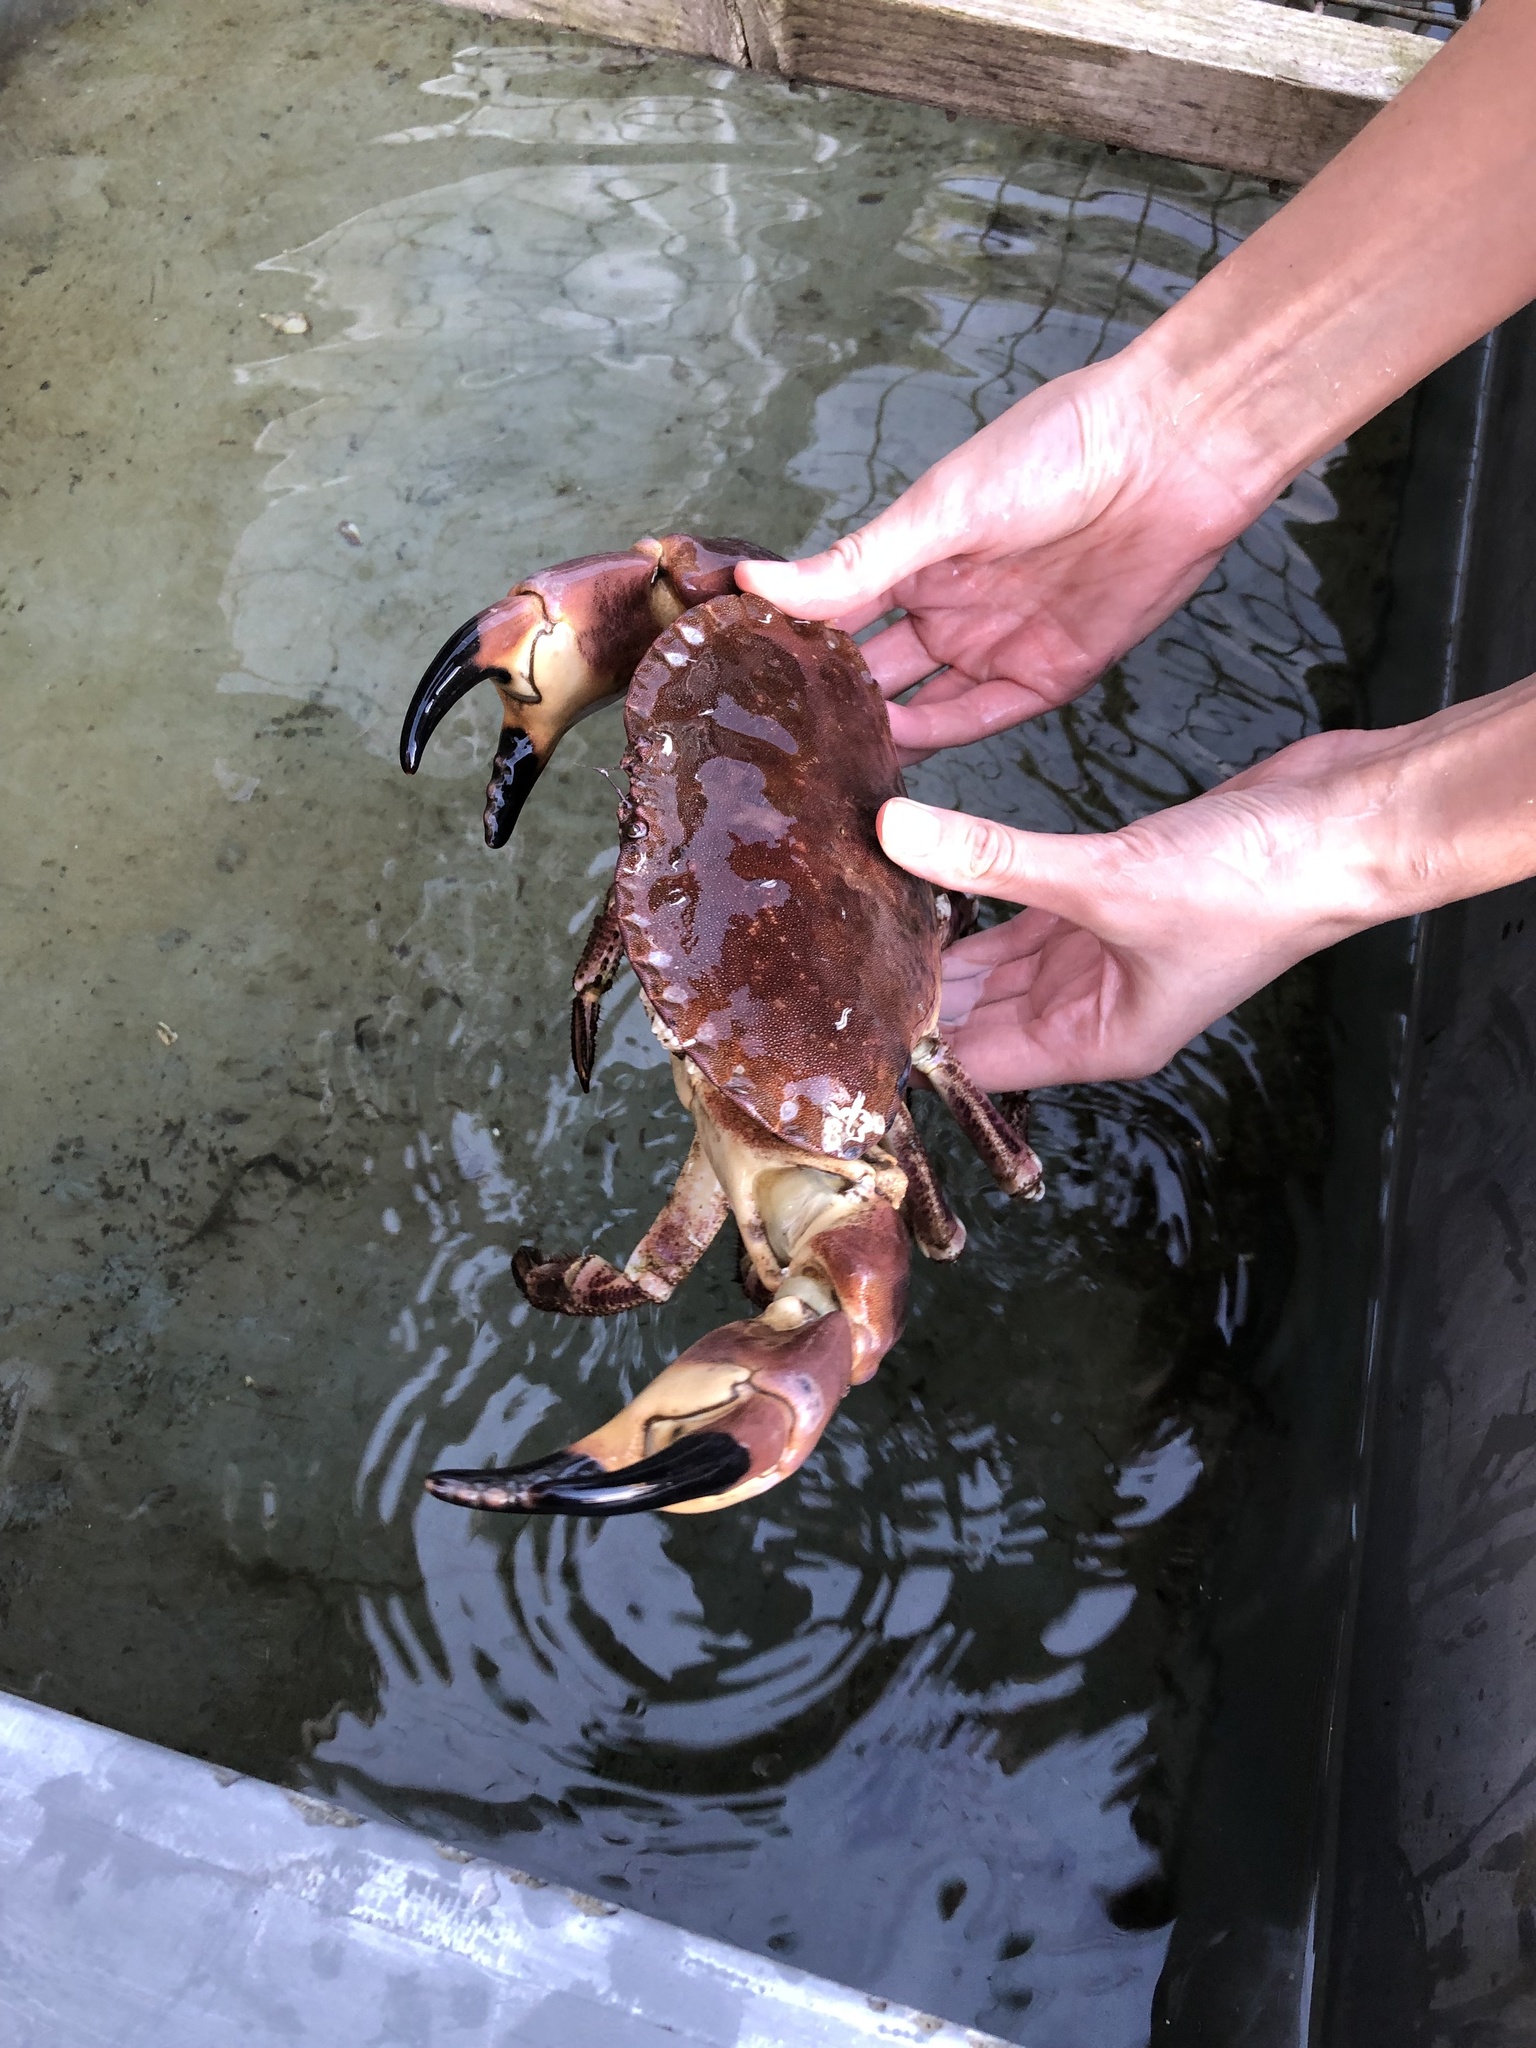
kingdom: Animalia
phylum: Arthropoda
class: Malacostraca
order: Decapoda
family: Cancridae
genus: Cancer
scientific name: Cancer pagurus
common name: Edible crab
